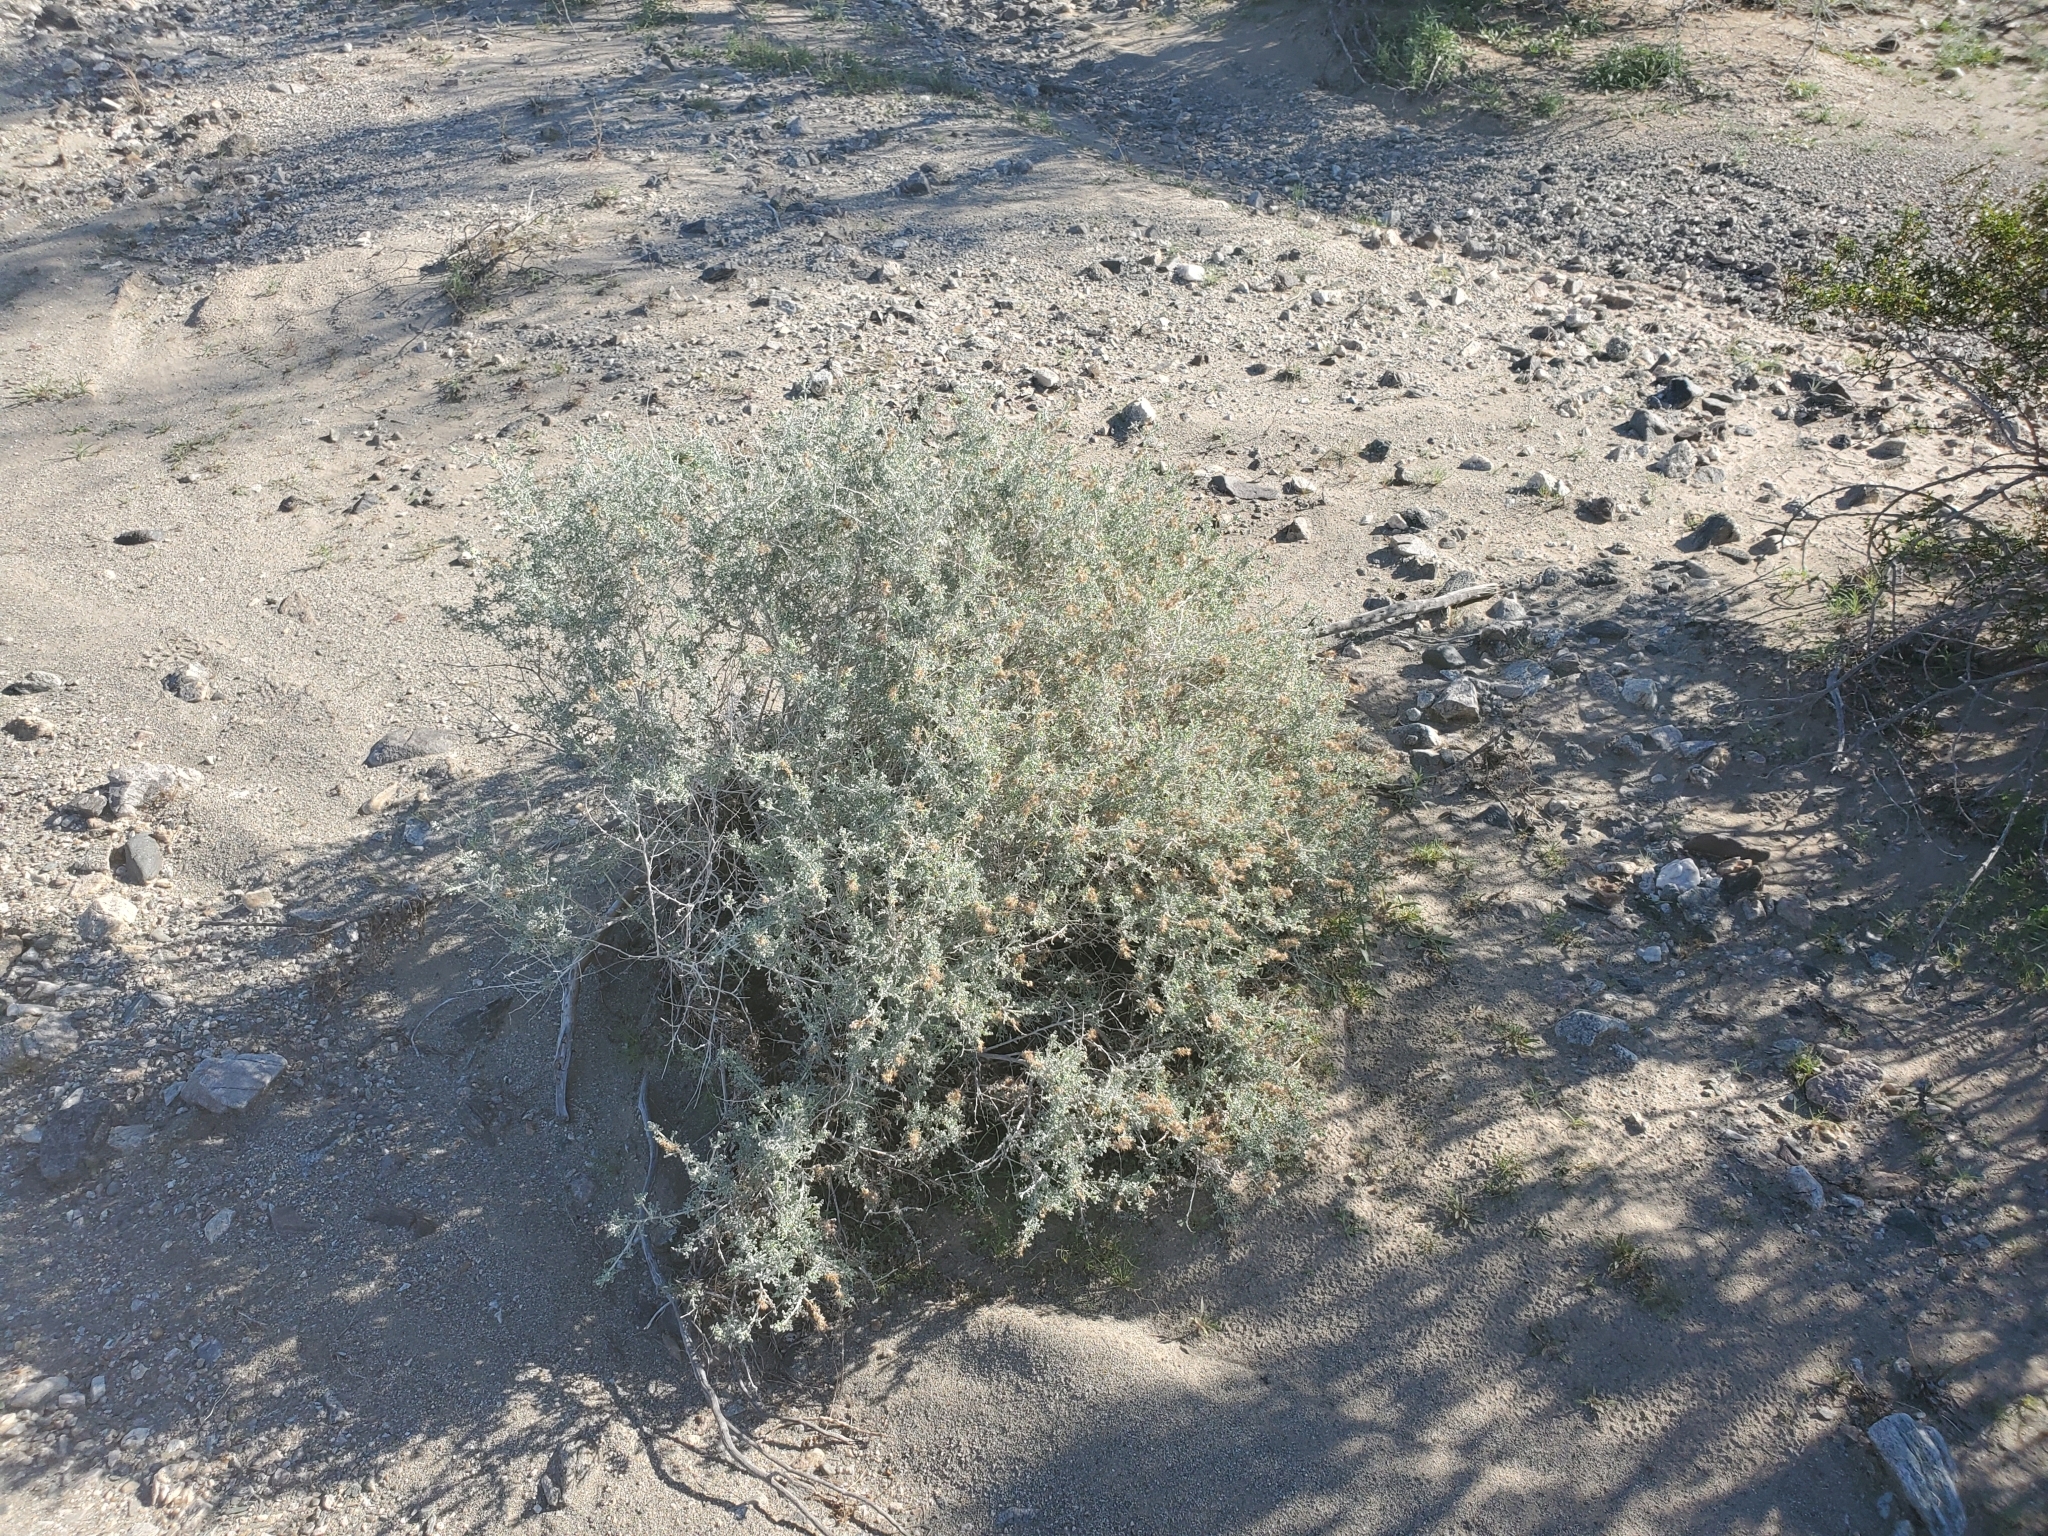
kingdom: Plantae
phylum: Tracheophyta
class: Magnoliopsida
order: Asterales
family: Asteraceae
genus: Ambrosia
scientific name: Ambrosia dumosa
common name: Bur-sage
